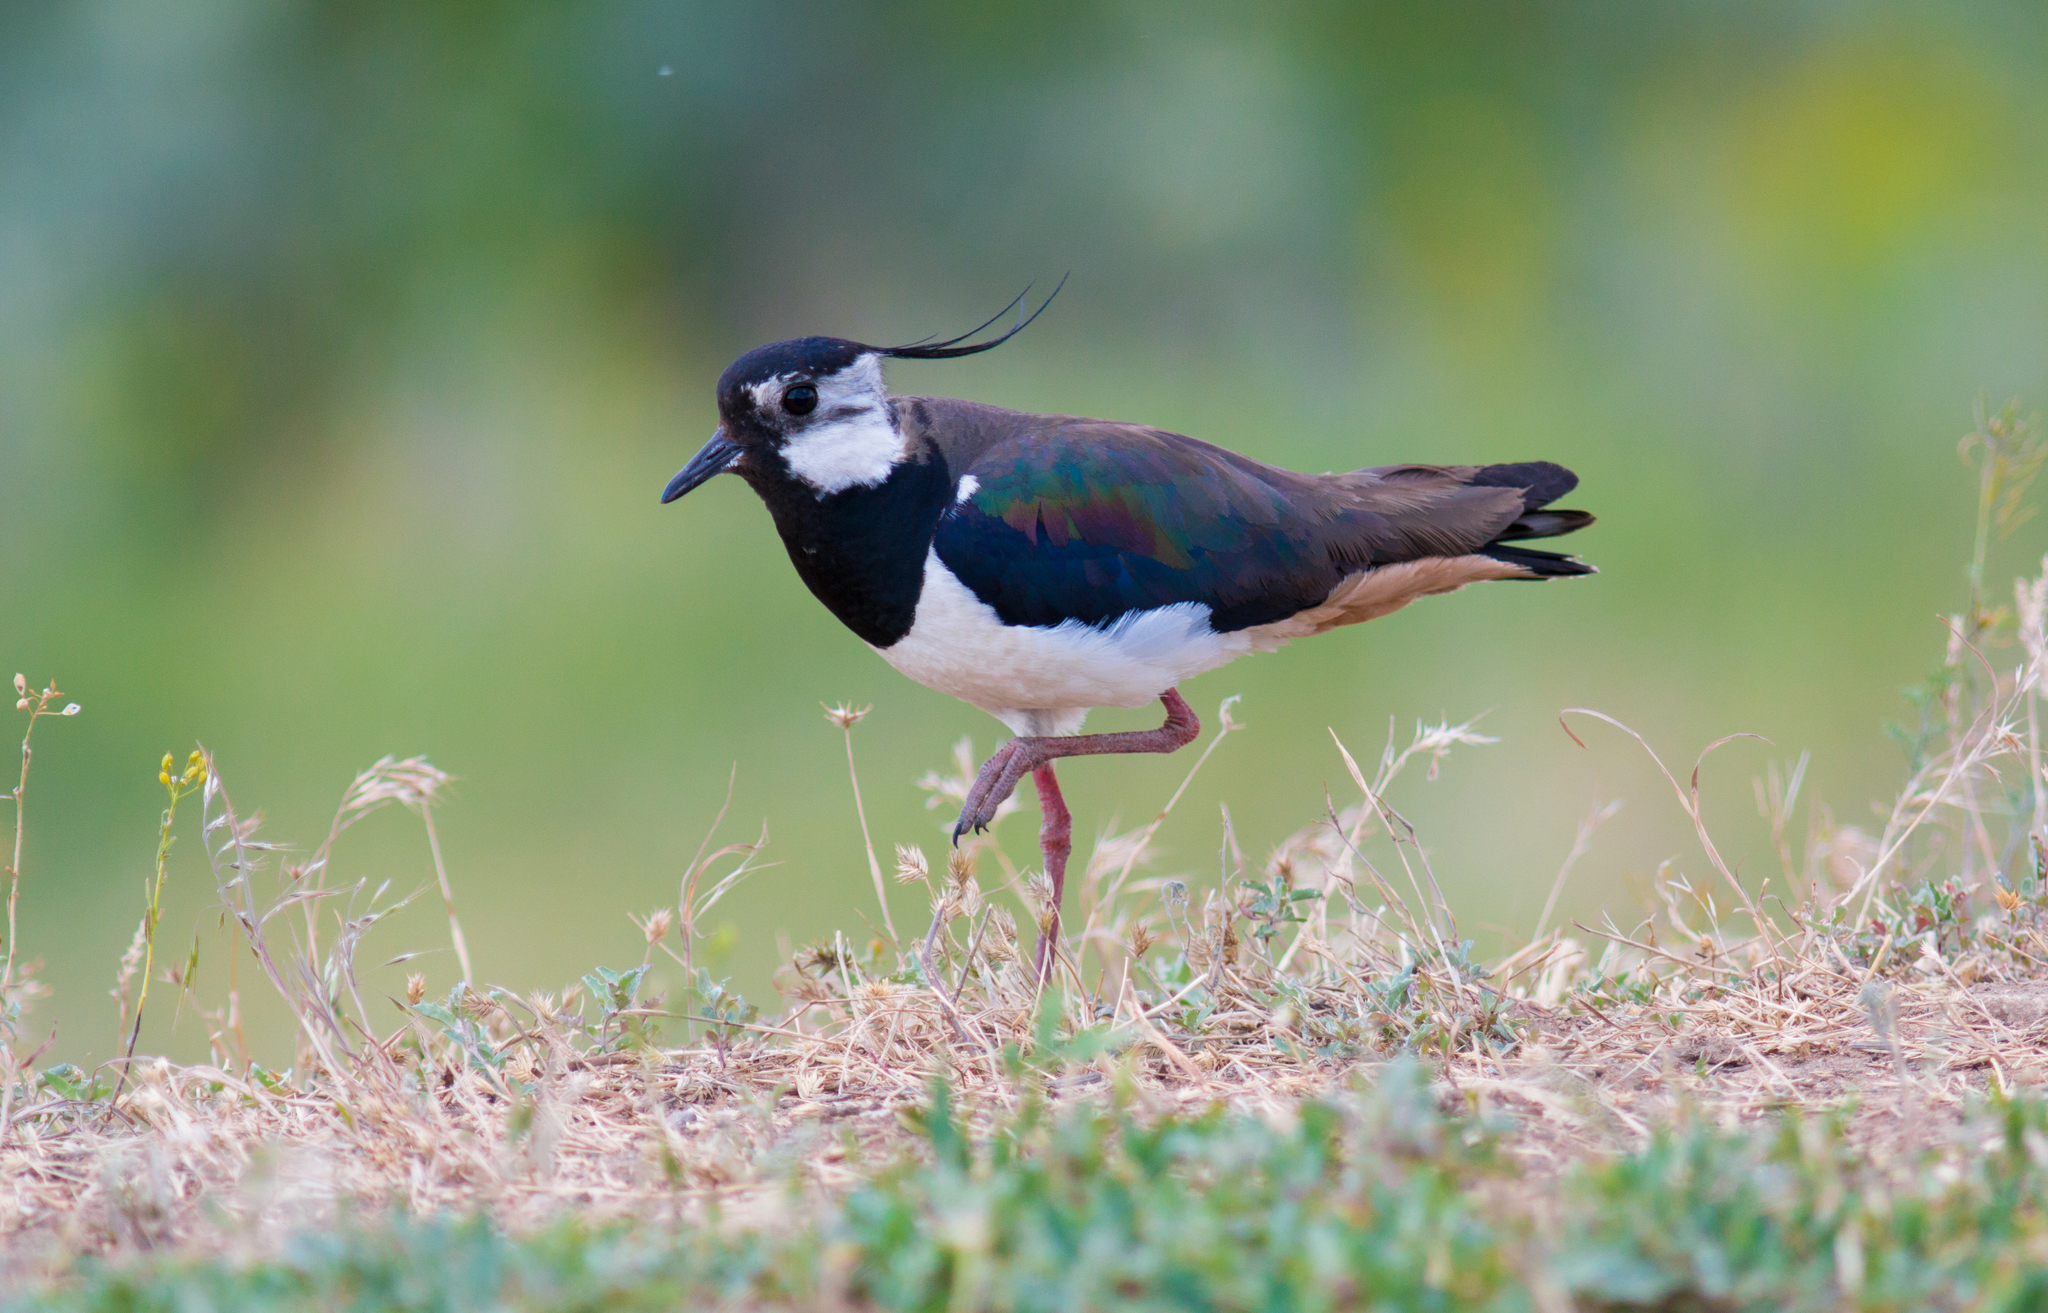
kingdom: Animalia
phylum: Chordata
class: Aves
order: Charadriiformes
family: Charadriidae
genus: Vanellus
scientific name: Vanellus vanellus
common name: Northern lapwing
